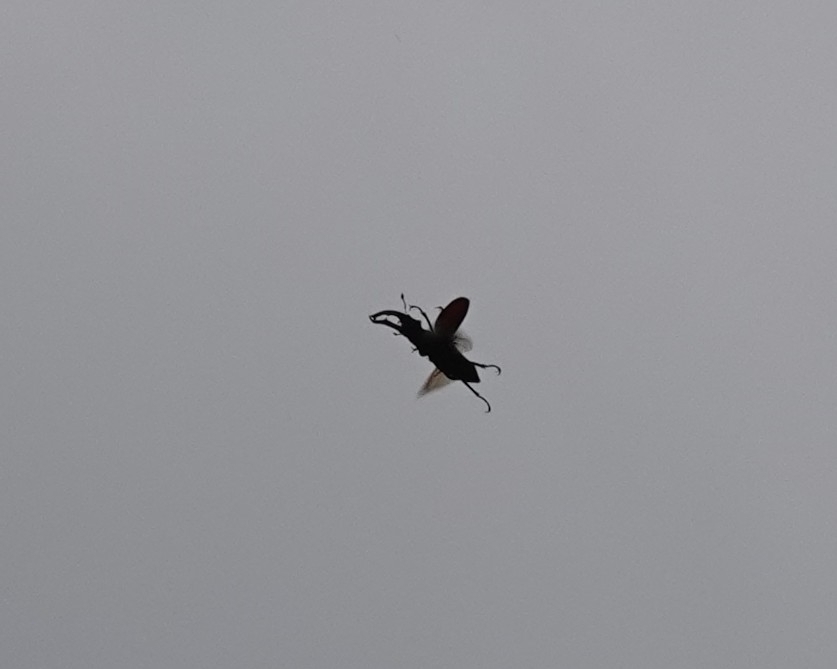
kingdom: Animalia
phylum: Arthropoda
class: Insecta
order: Coleoptera
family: Lucanidae
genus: Lucanus
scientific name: Lucanus cervus
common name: Stag beetle
